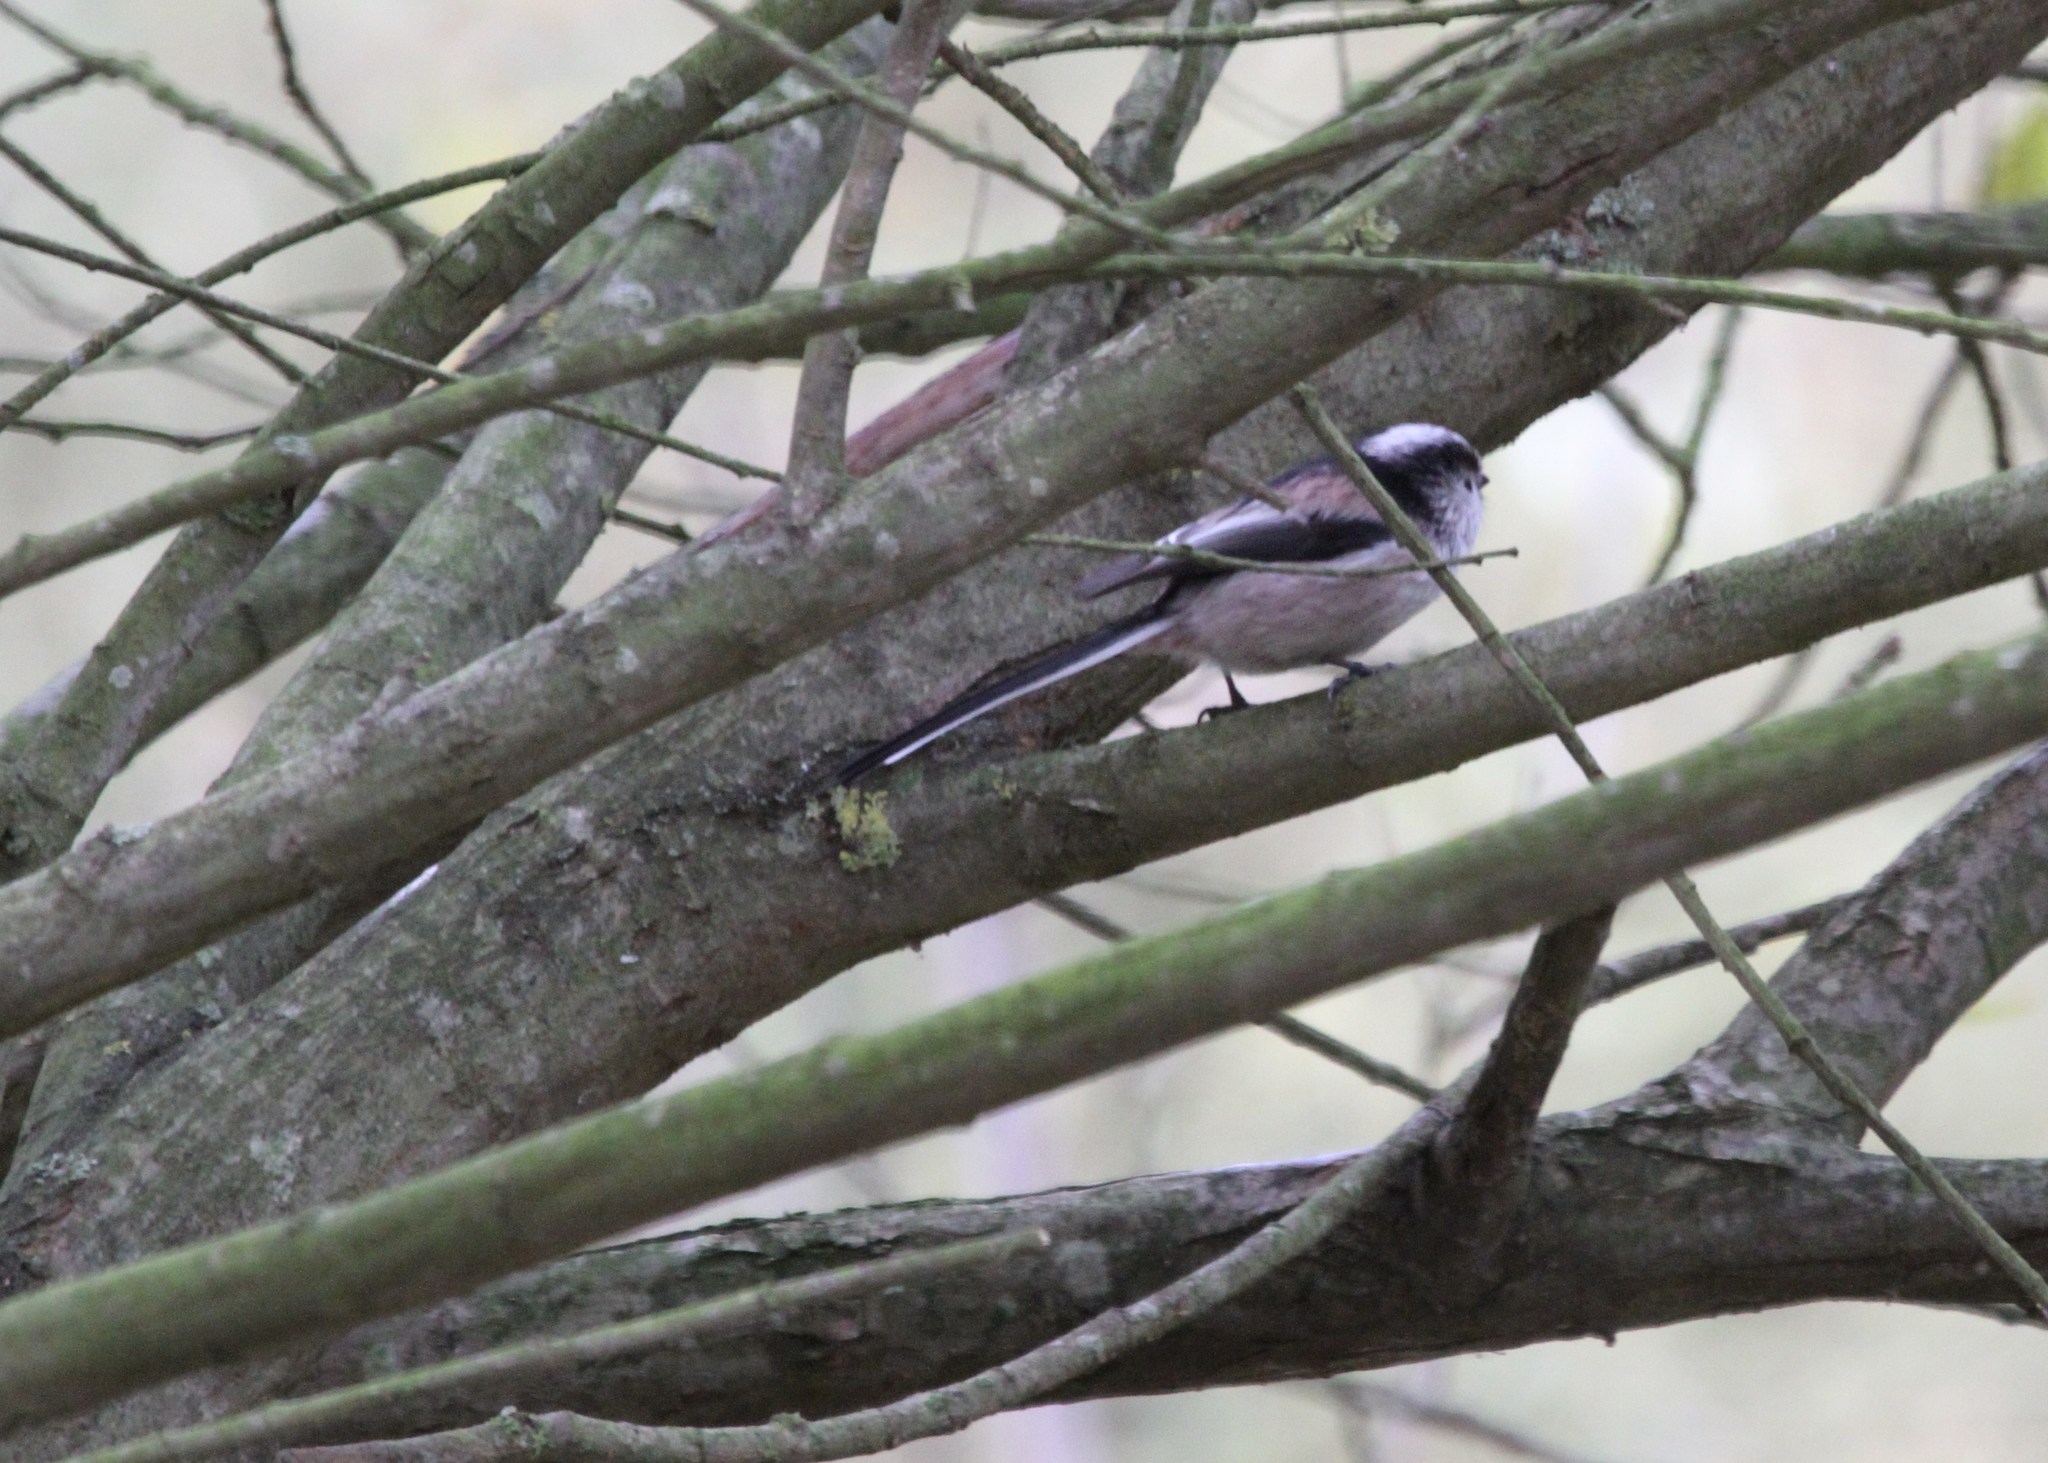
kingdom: Animalia
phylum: Chordata
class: Aves
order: Passeriformes
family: Aegithalidae
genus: Aegithalos
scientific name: Aegithalos caudatus
